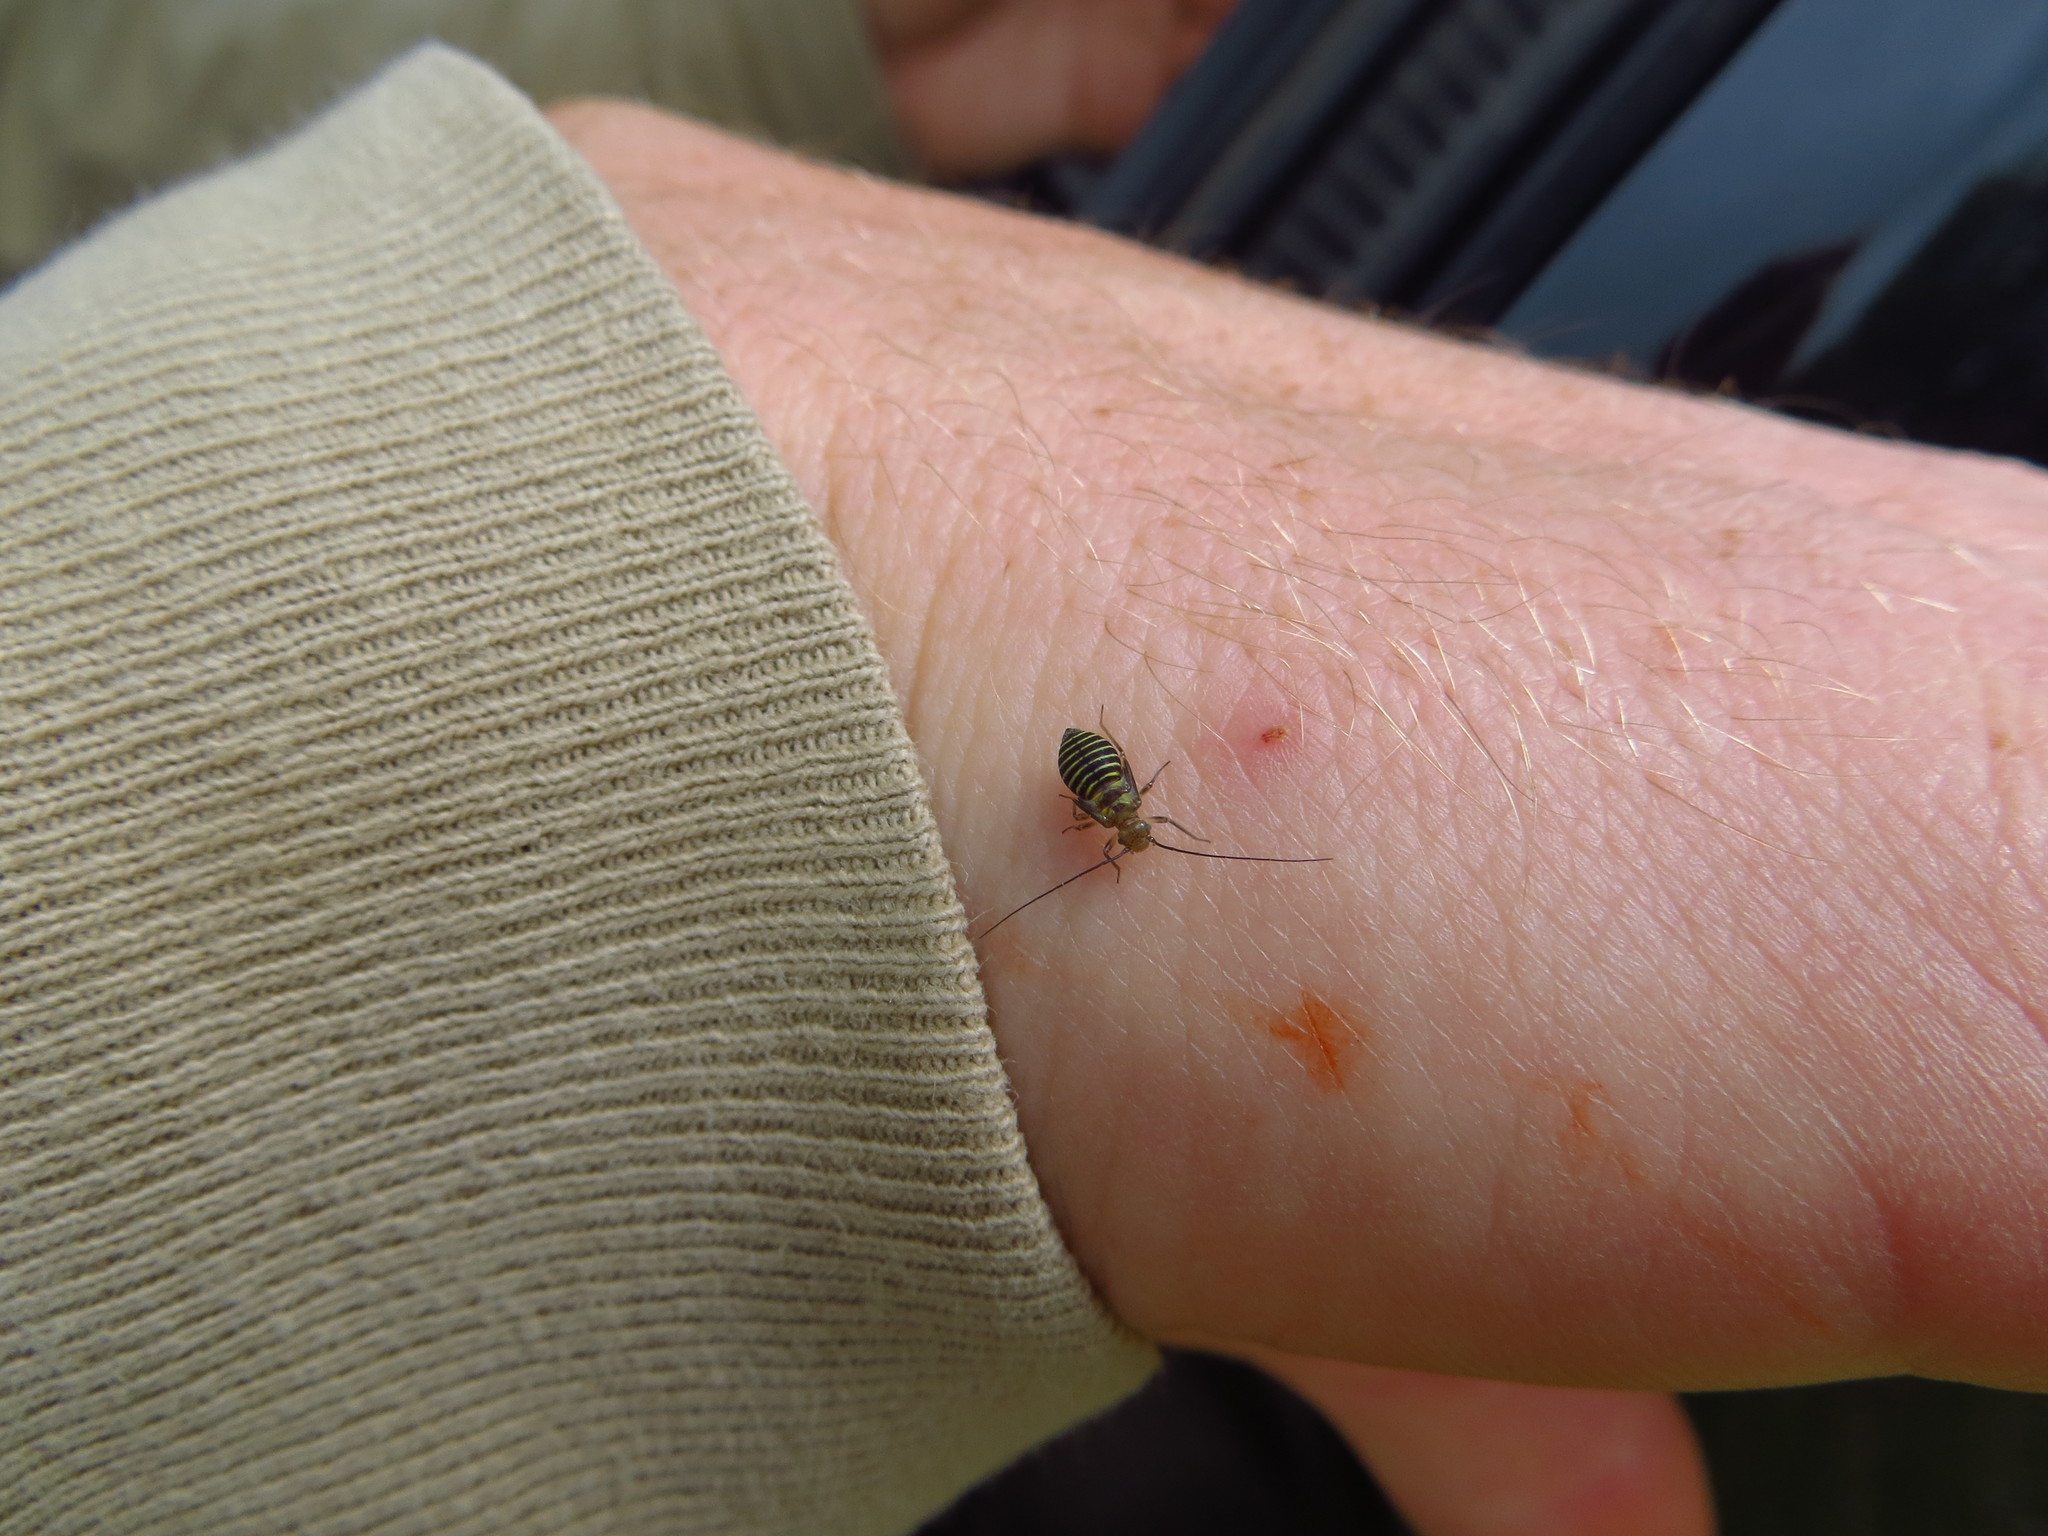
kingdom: Animalia
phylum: Arthropoda
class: Insecta
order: Psocodea
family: Psocidae
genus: Cerastipsocus
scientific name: Cerastipsocus venosus
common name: Tree cattle
